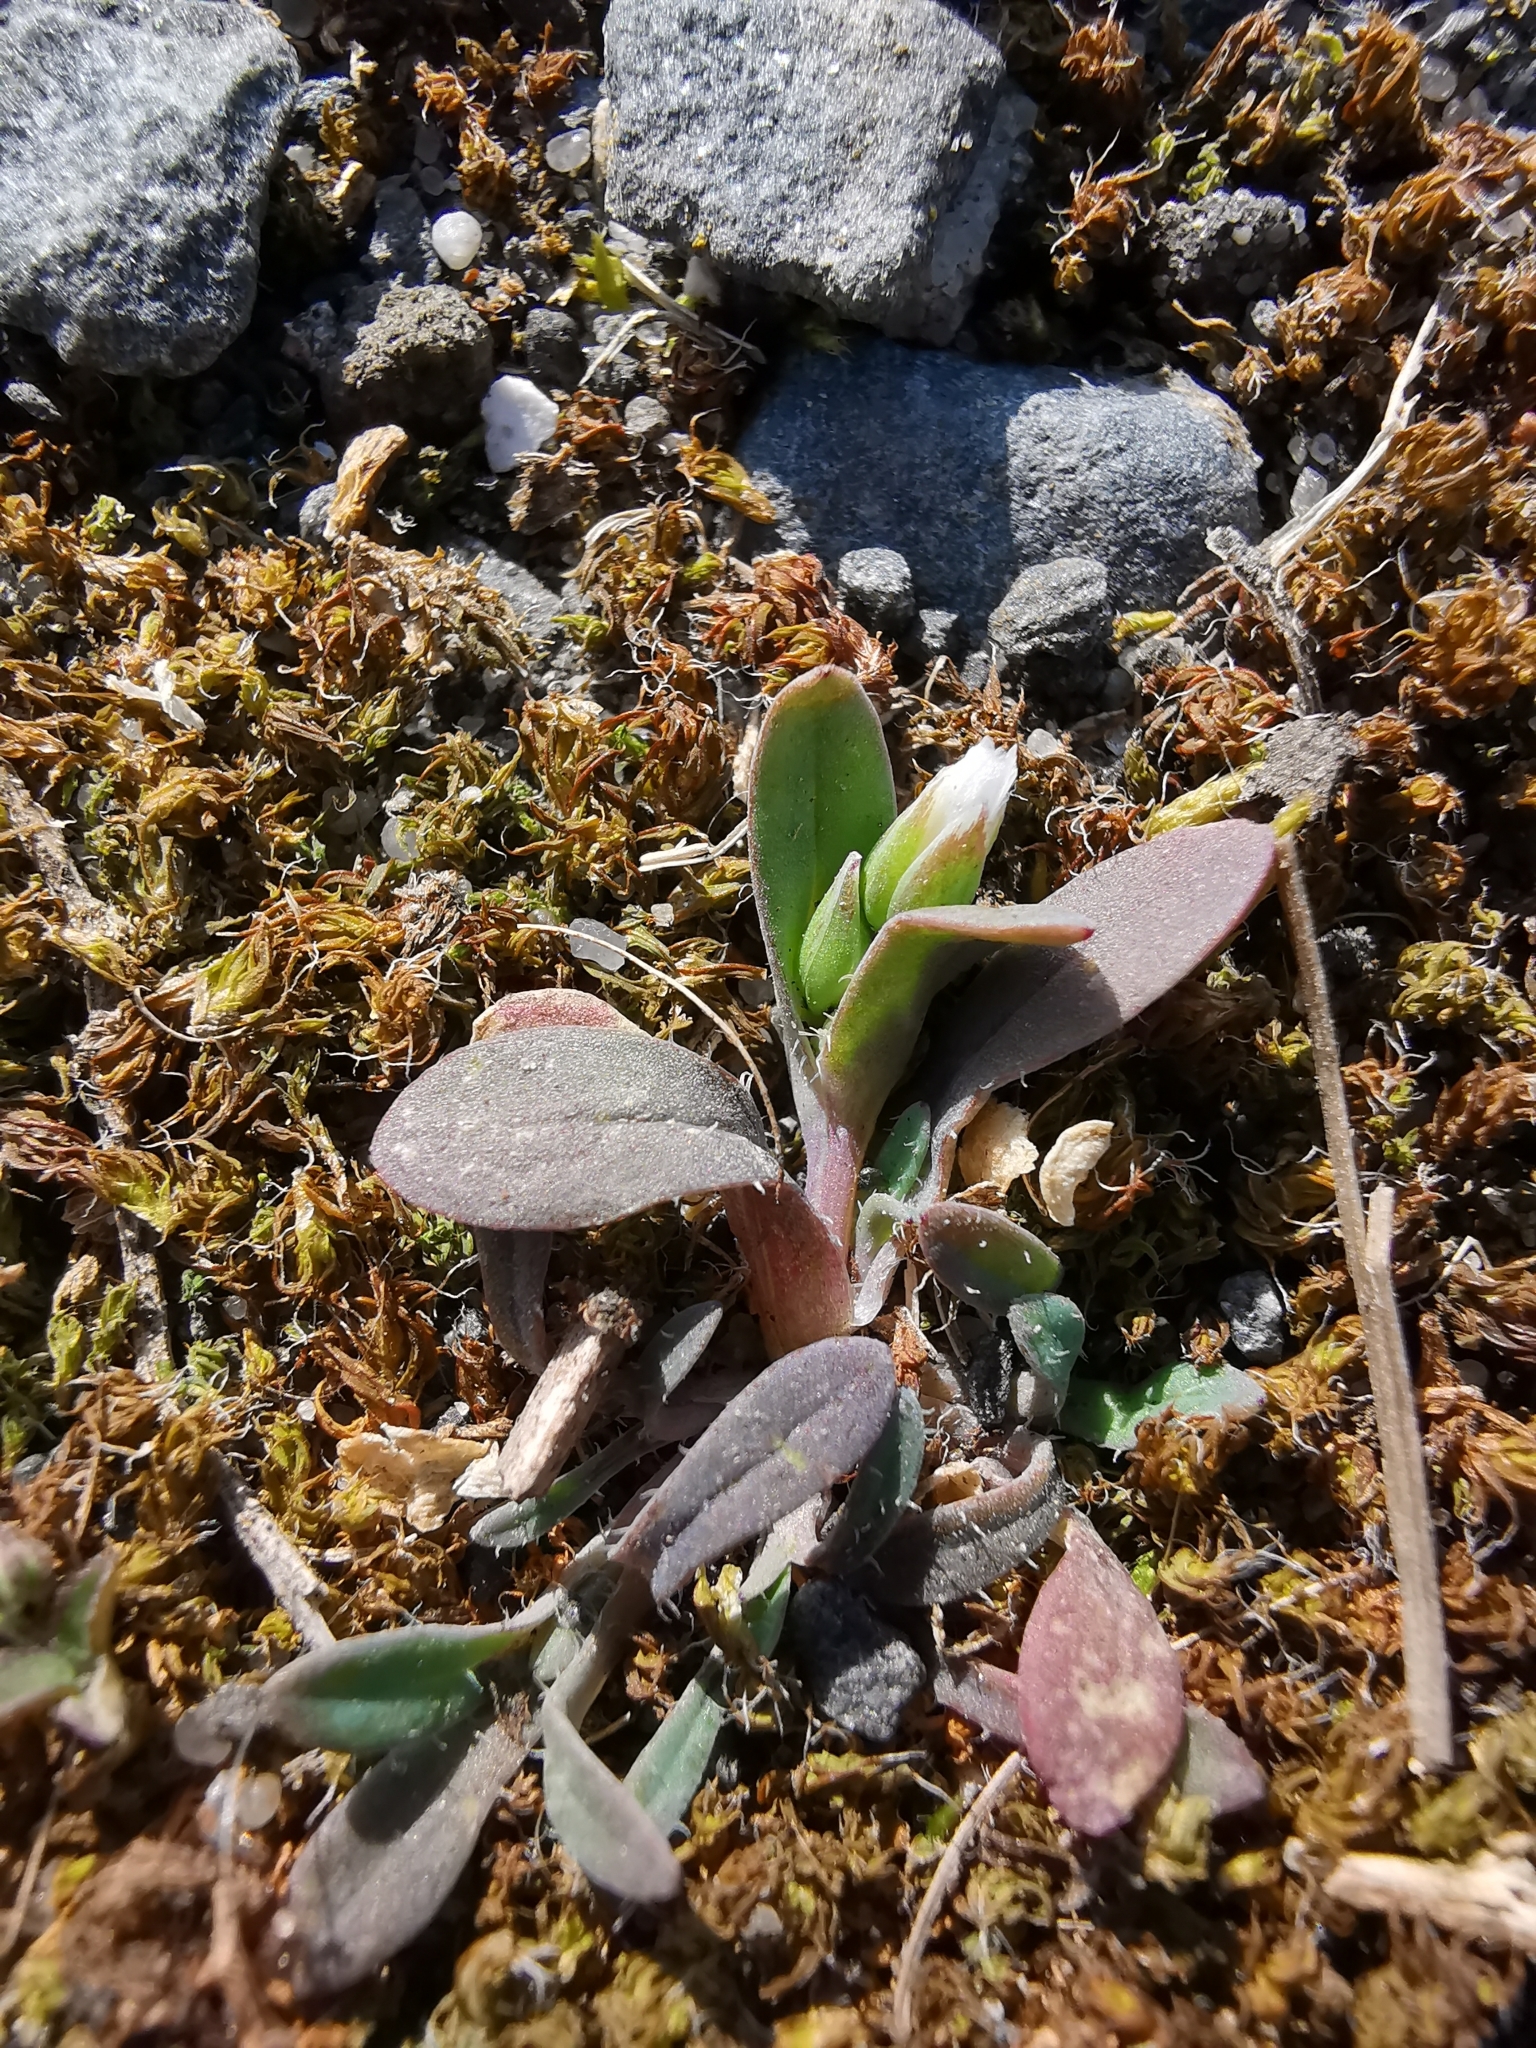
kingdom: Plantae
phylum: Tracheophyta
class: Magnoliopsida
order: Caryophyllales
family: Caryophyllaceae
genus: Holosteum
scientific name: Holosteum umbellatum
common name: Jagged chickweed
